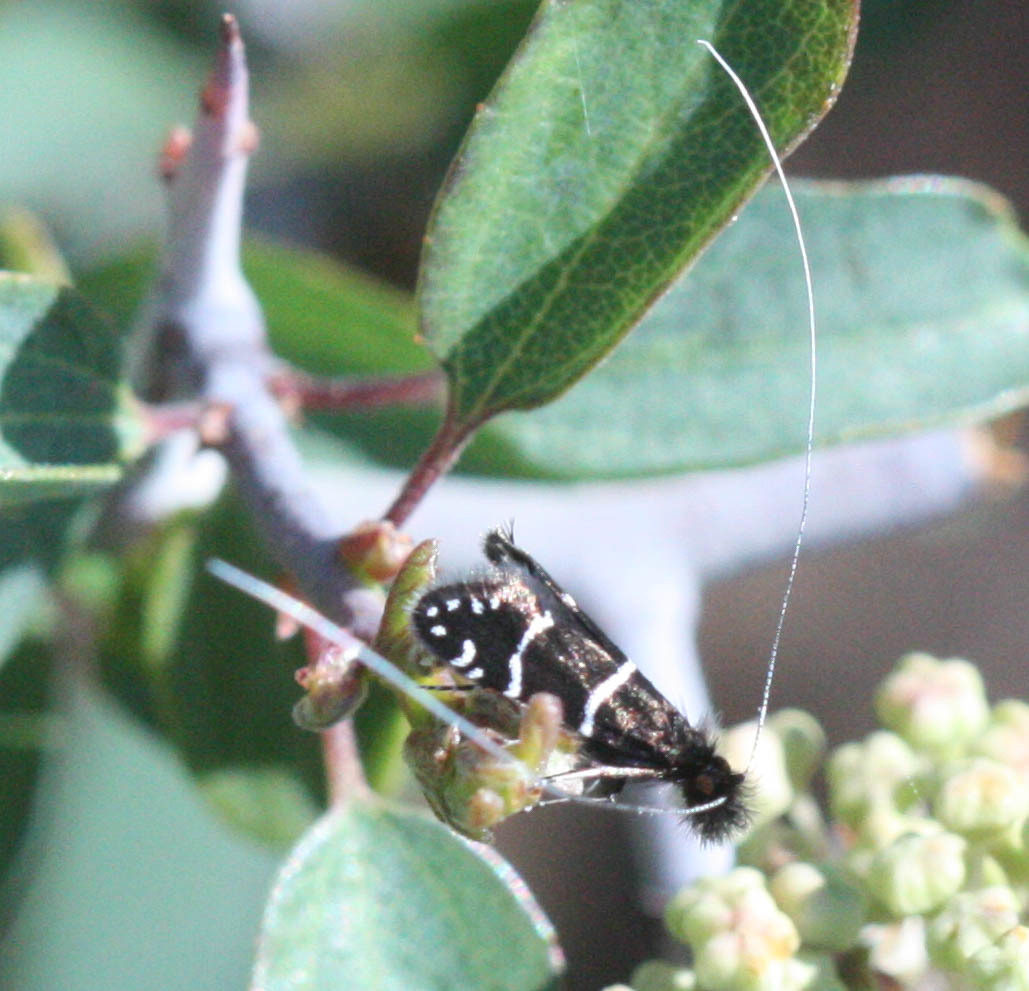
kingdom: Animalia
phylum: Arthropoda
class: Insecta
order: Lepidoptera
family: Adelidae
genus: Adela
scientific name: Adela septentrionella
